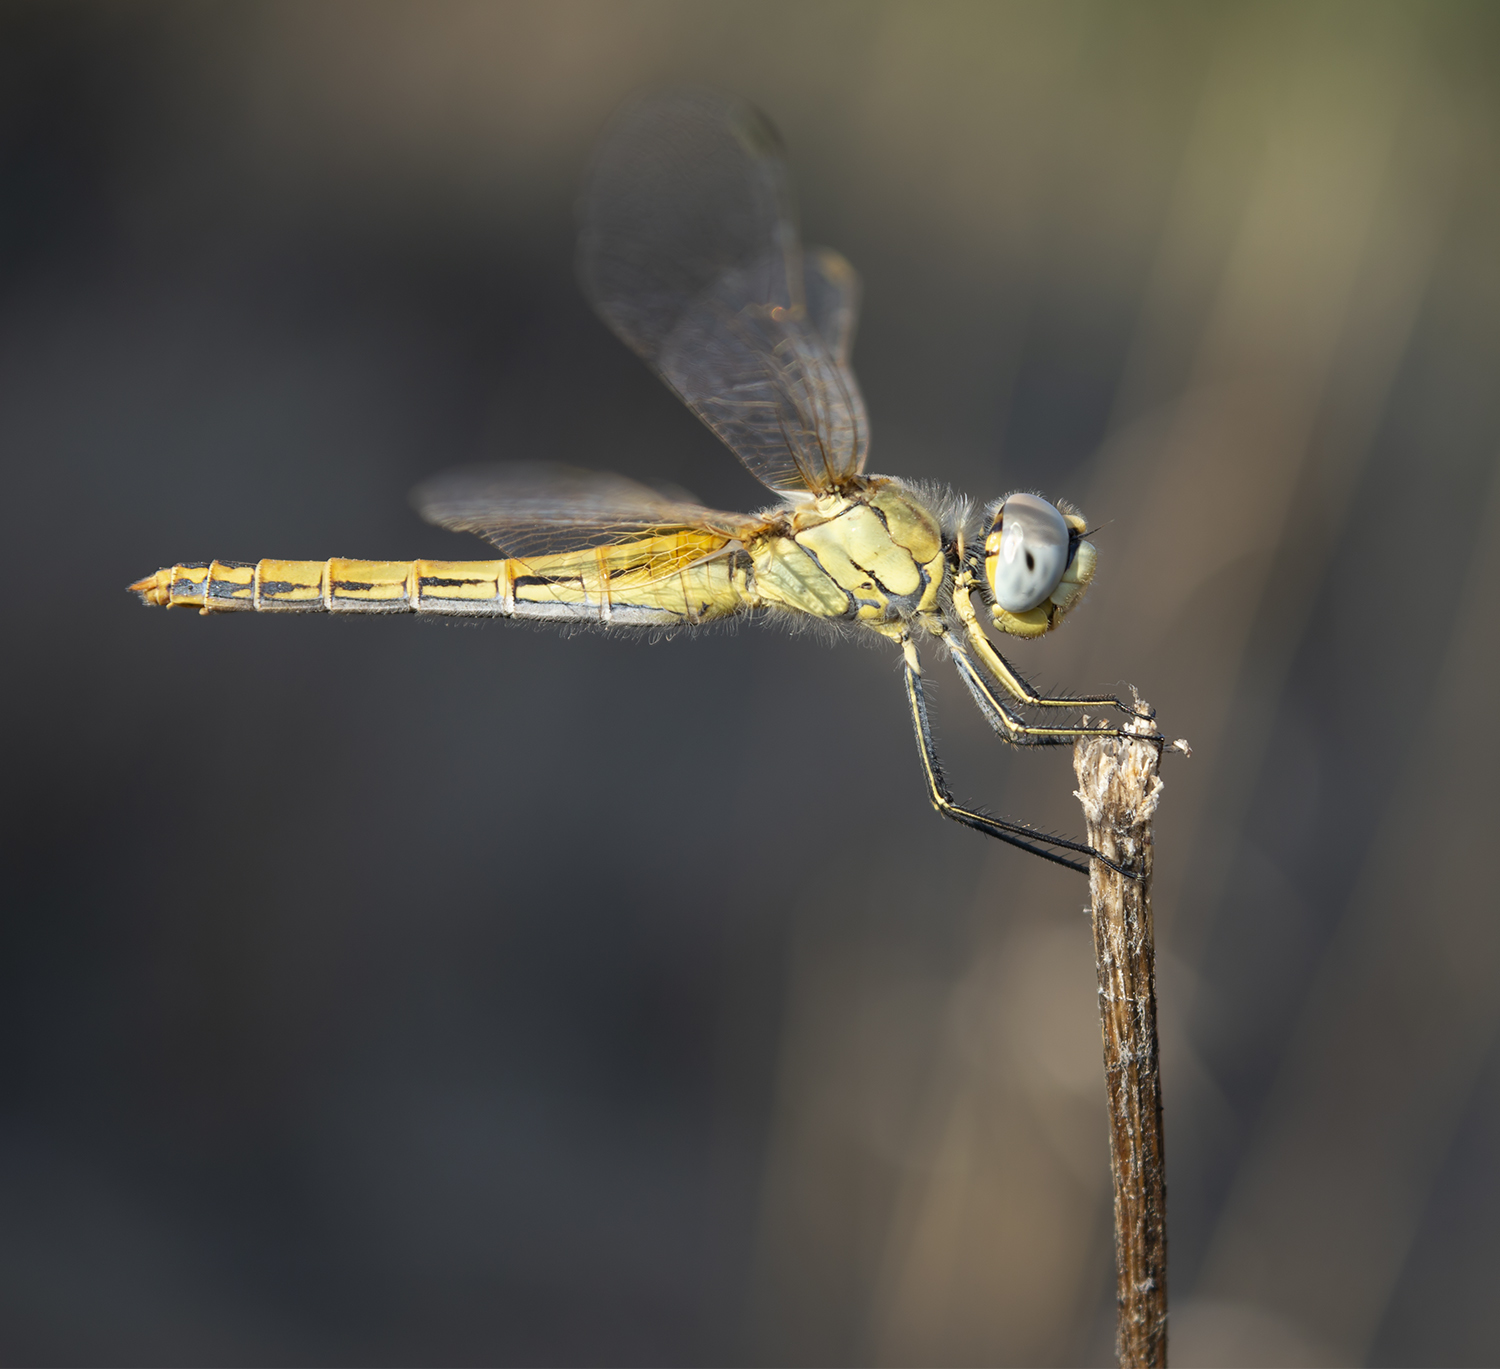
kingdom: Animalia
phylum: Arthropoda
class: Insecta
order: Odonata
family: Libellulidae
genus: Sympetrum
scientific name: Sympetrum fonscolombii
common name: Red-veined darter
